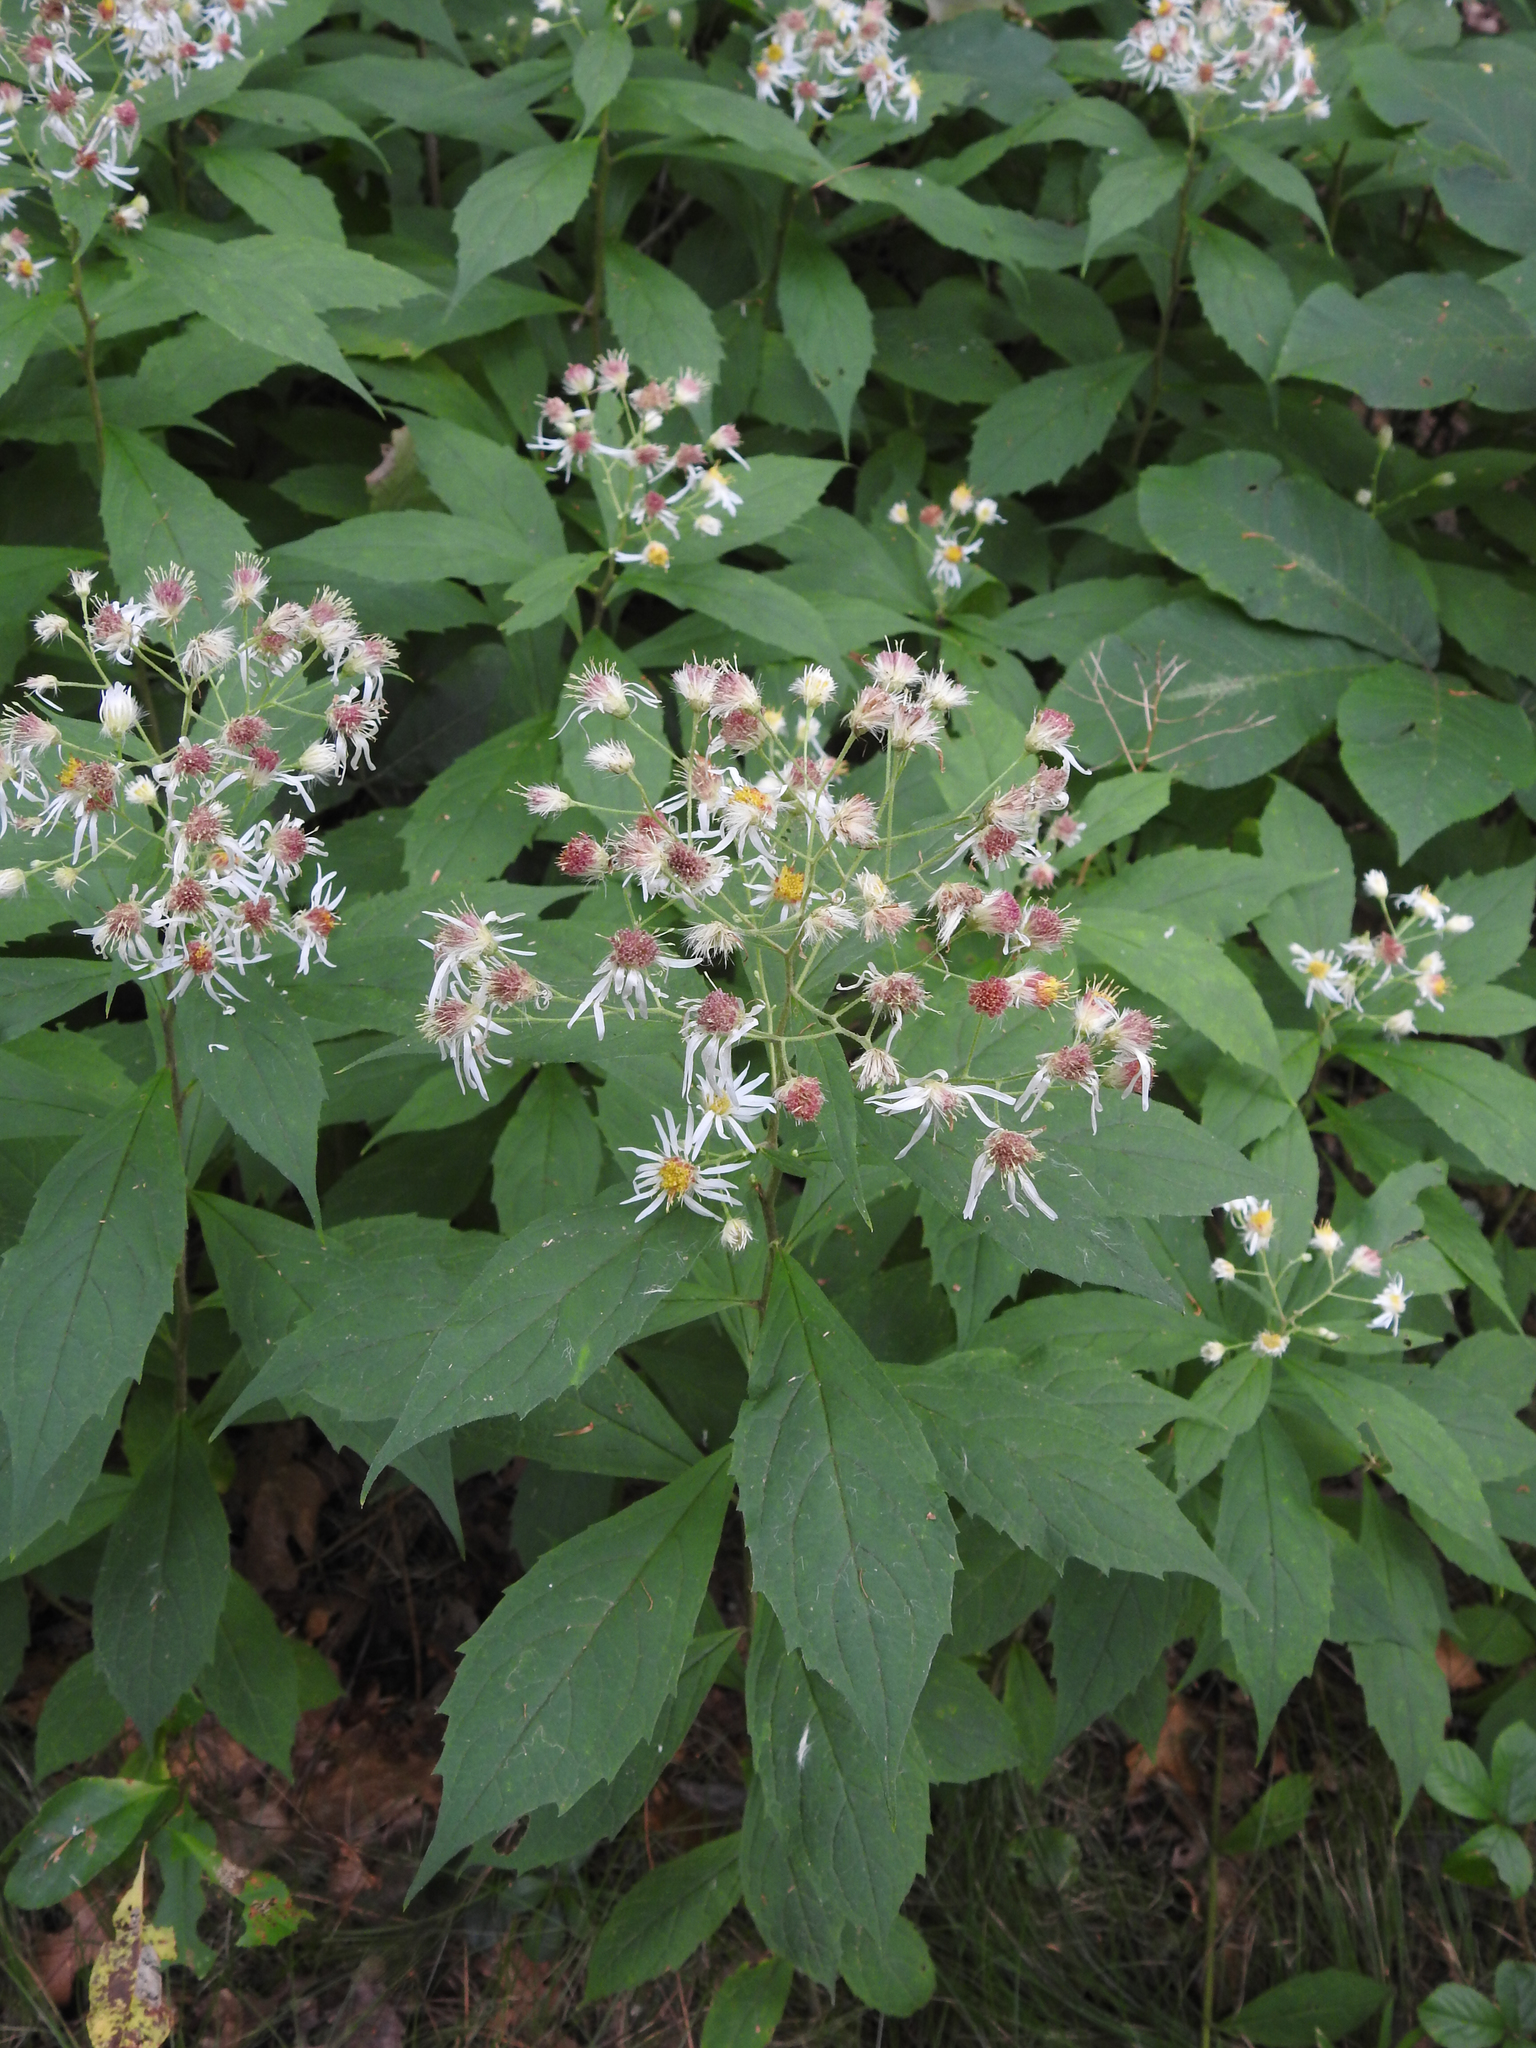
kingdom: Plantae
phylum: Tracheophyta
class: Magnoliopsida
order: Asterales
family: Asteraceae
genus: Oclemena
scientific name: Oclemena acuminata
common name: Mountain aster
